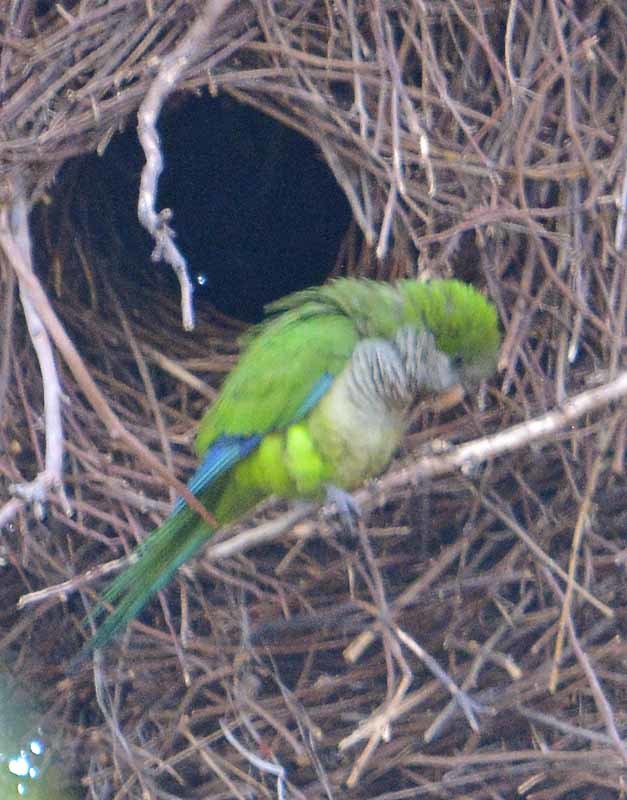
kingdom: Animalia
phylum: Chordata
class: Aves
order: Psittaciformes
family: Psittacidae
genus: Myiopsitta
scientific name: Myiopsitta monachus
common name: Monk parakeet
